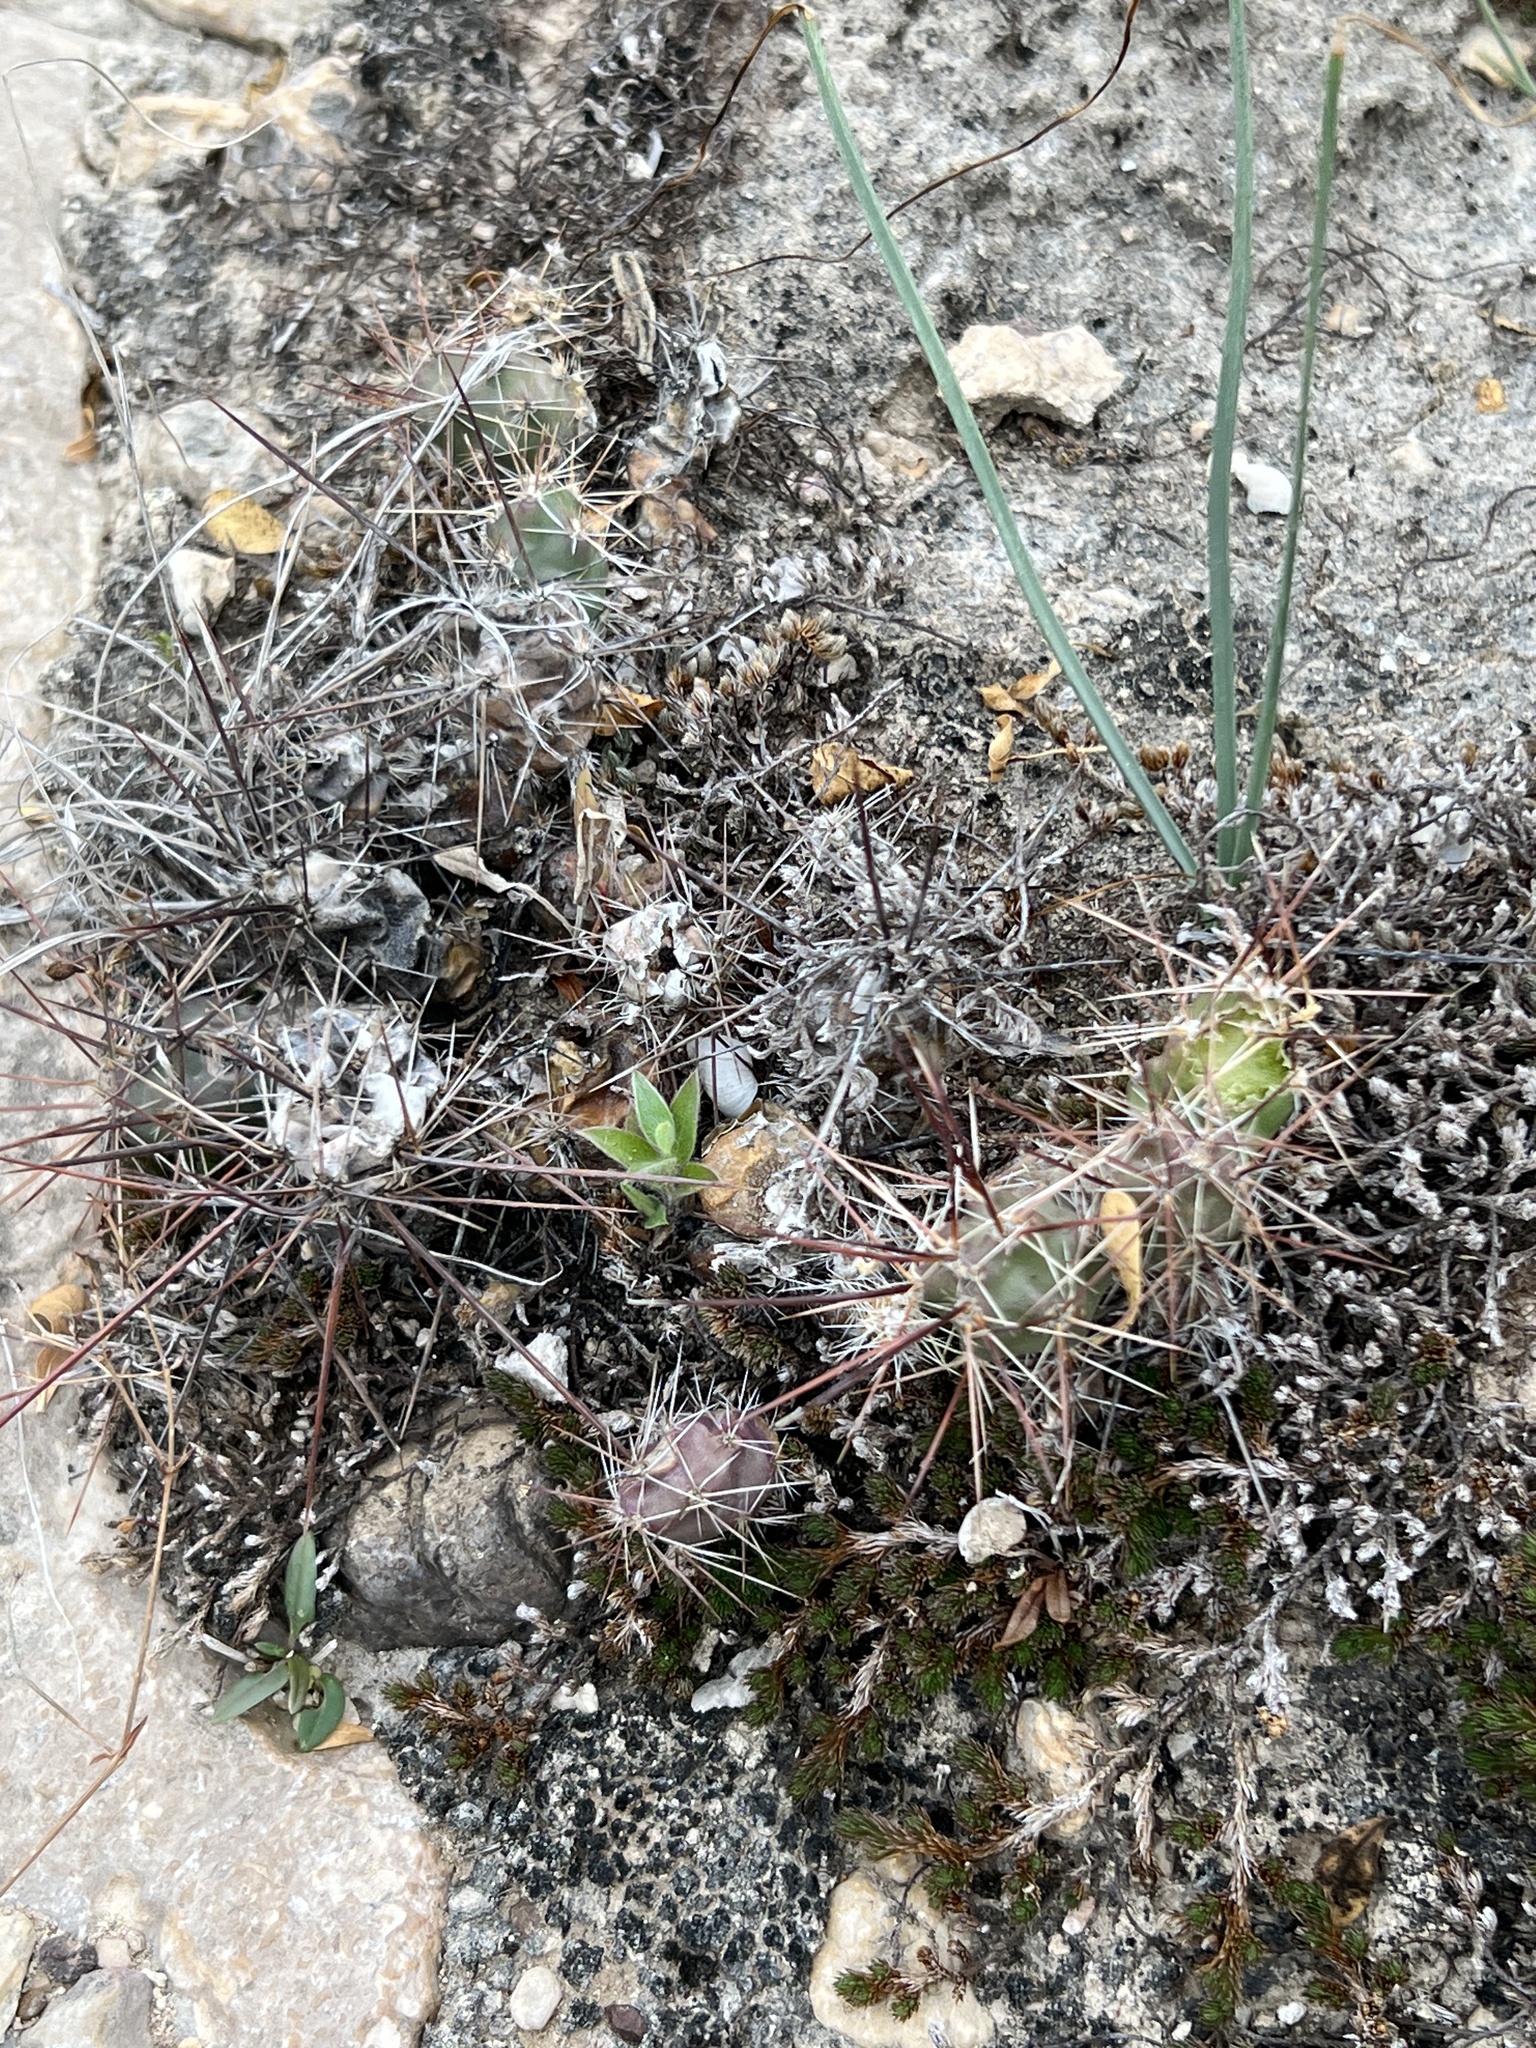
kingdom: Plantae
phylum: Tracheophyta
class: Magnoliopsida
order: Caryophyllales
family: Cactaceae
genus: Grusonia
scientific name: Grusonia schottii
